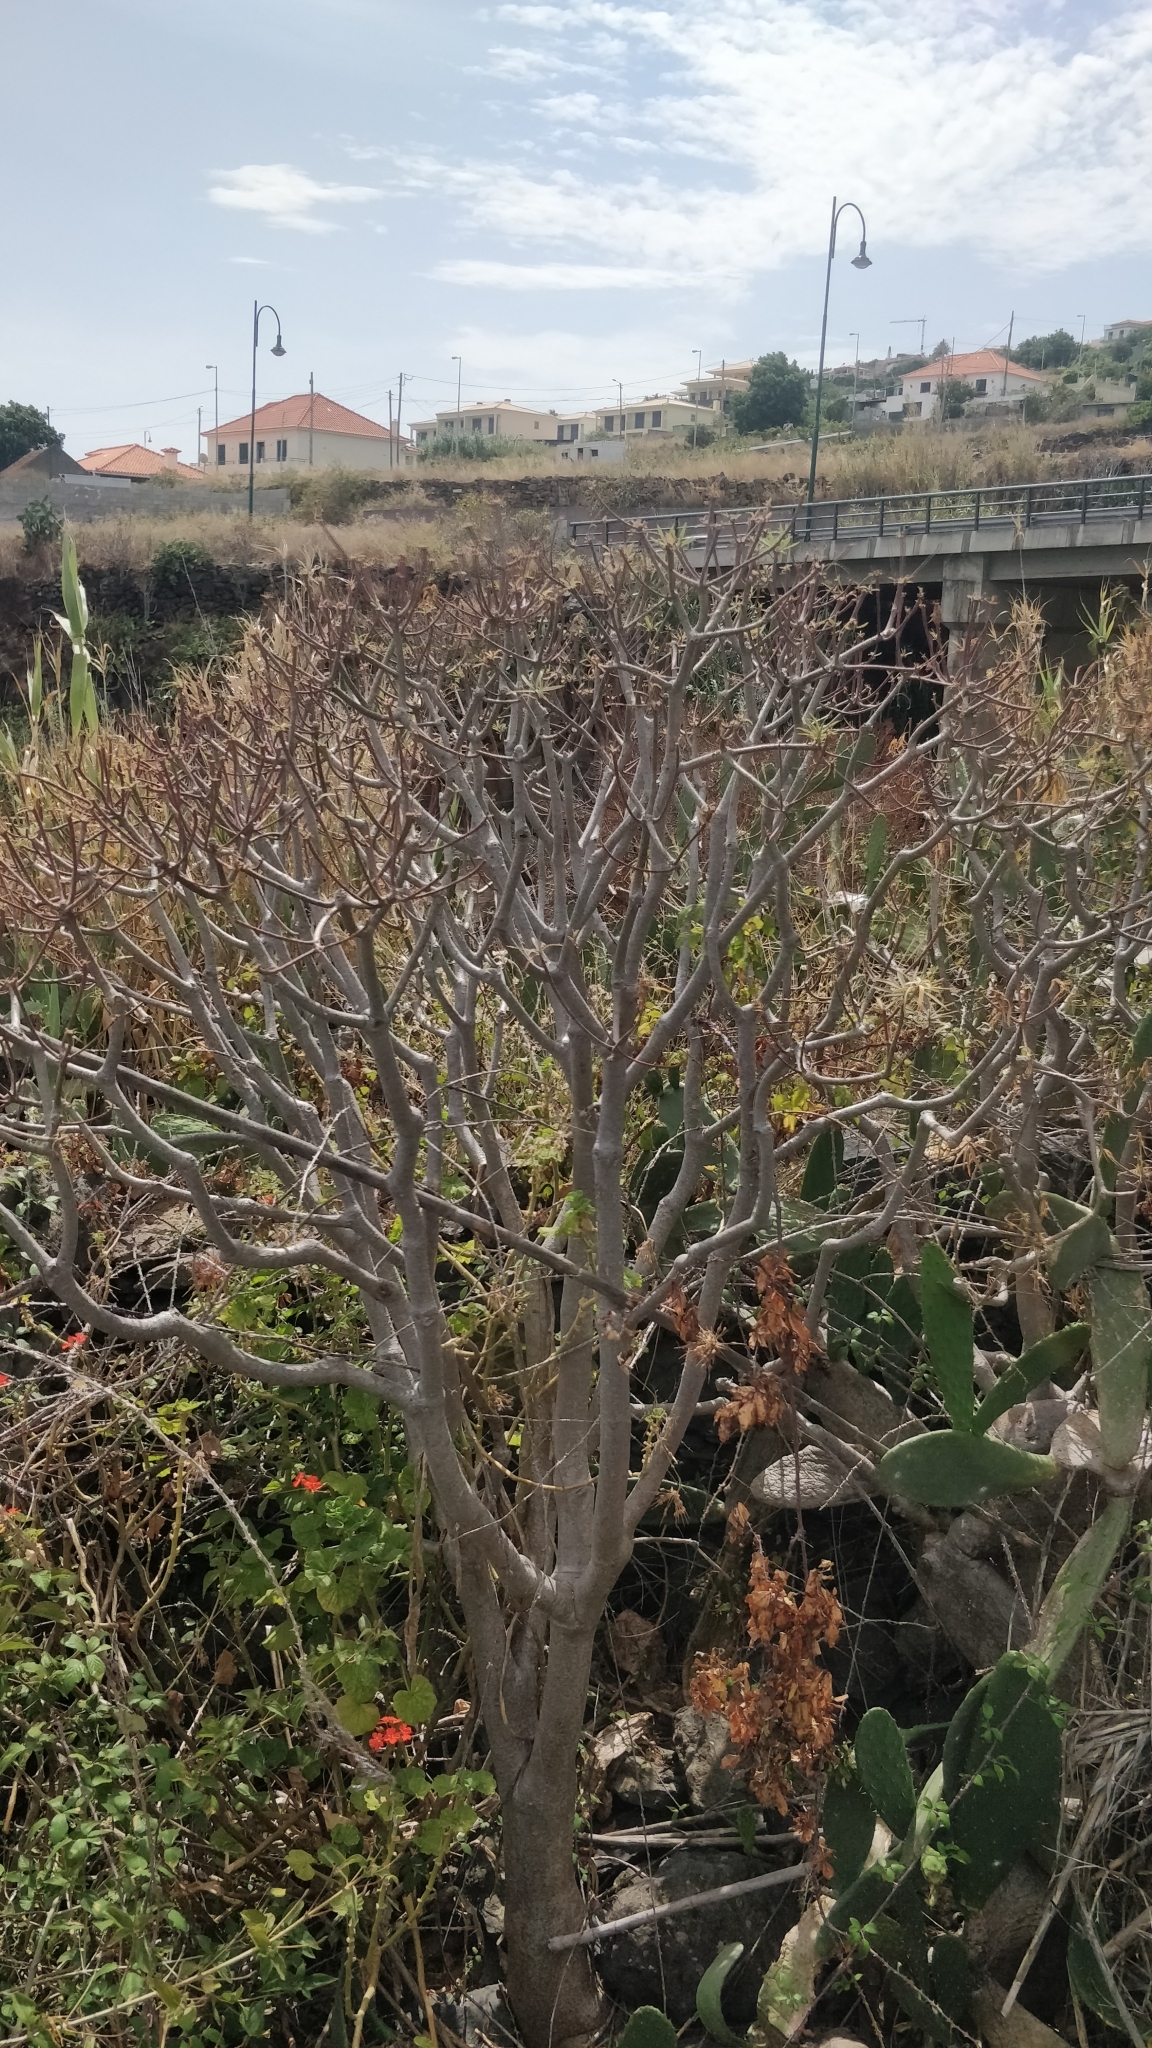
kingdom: Plantae
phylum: Tracheophyta
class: Magnoliopsida
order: Malpighiales
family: Euphorbiaceae
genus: Euphorbia
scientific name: Euphorbia piscatoria
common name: Fish-stunning spurge
